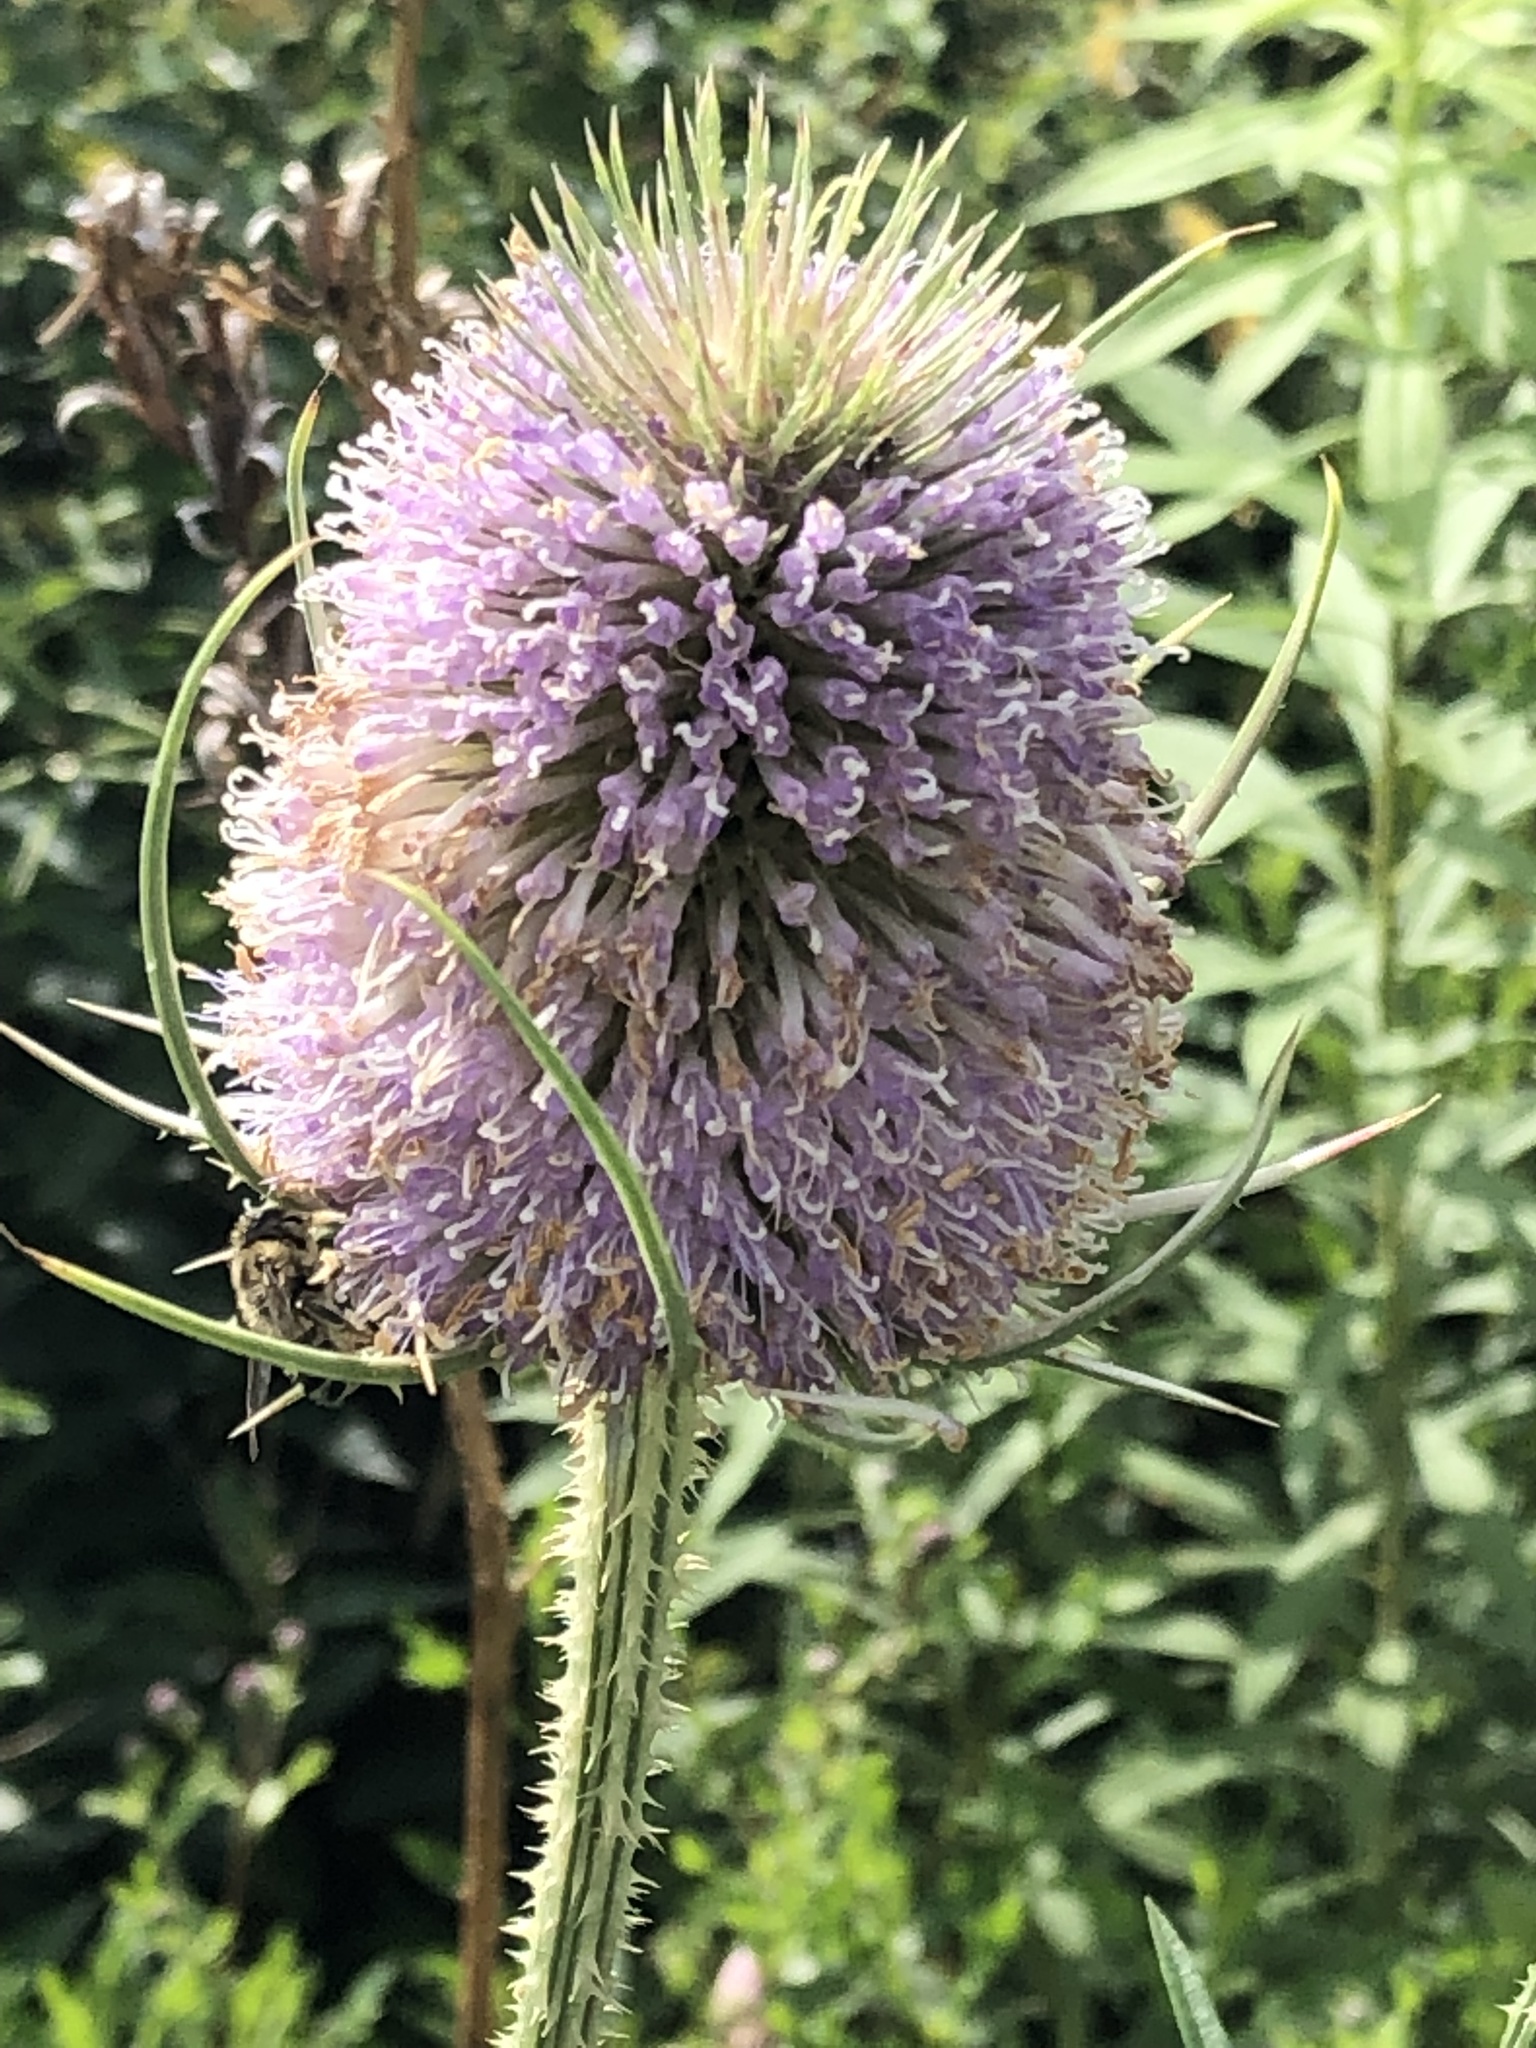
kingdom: Plantae
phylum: Tracheophyta
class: Magnoliopsida
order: Dipsacales
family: Caprifoliaceae
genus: Dipsacus
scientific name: Dipsacus fullonum
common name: Teasel
